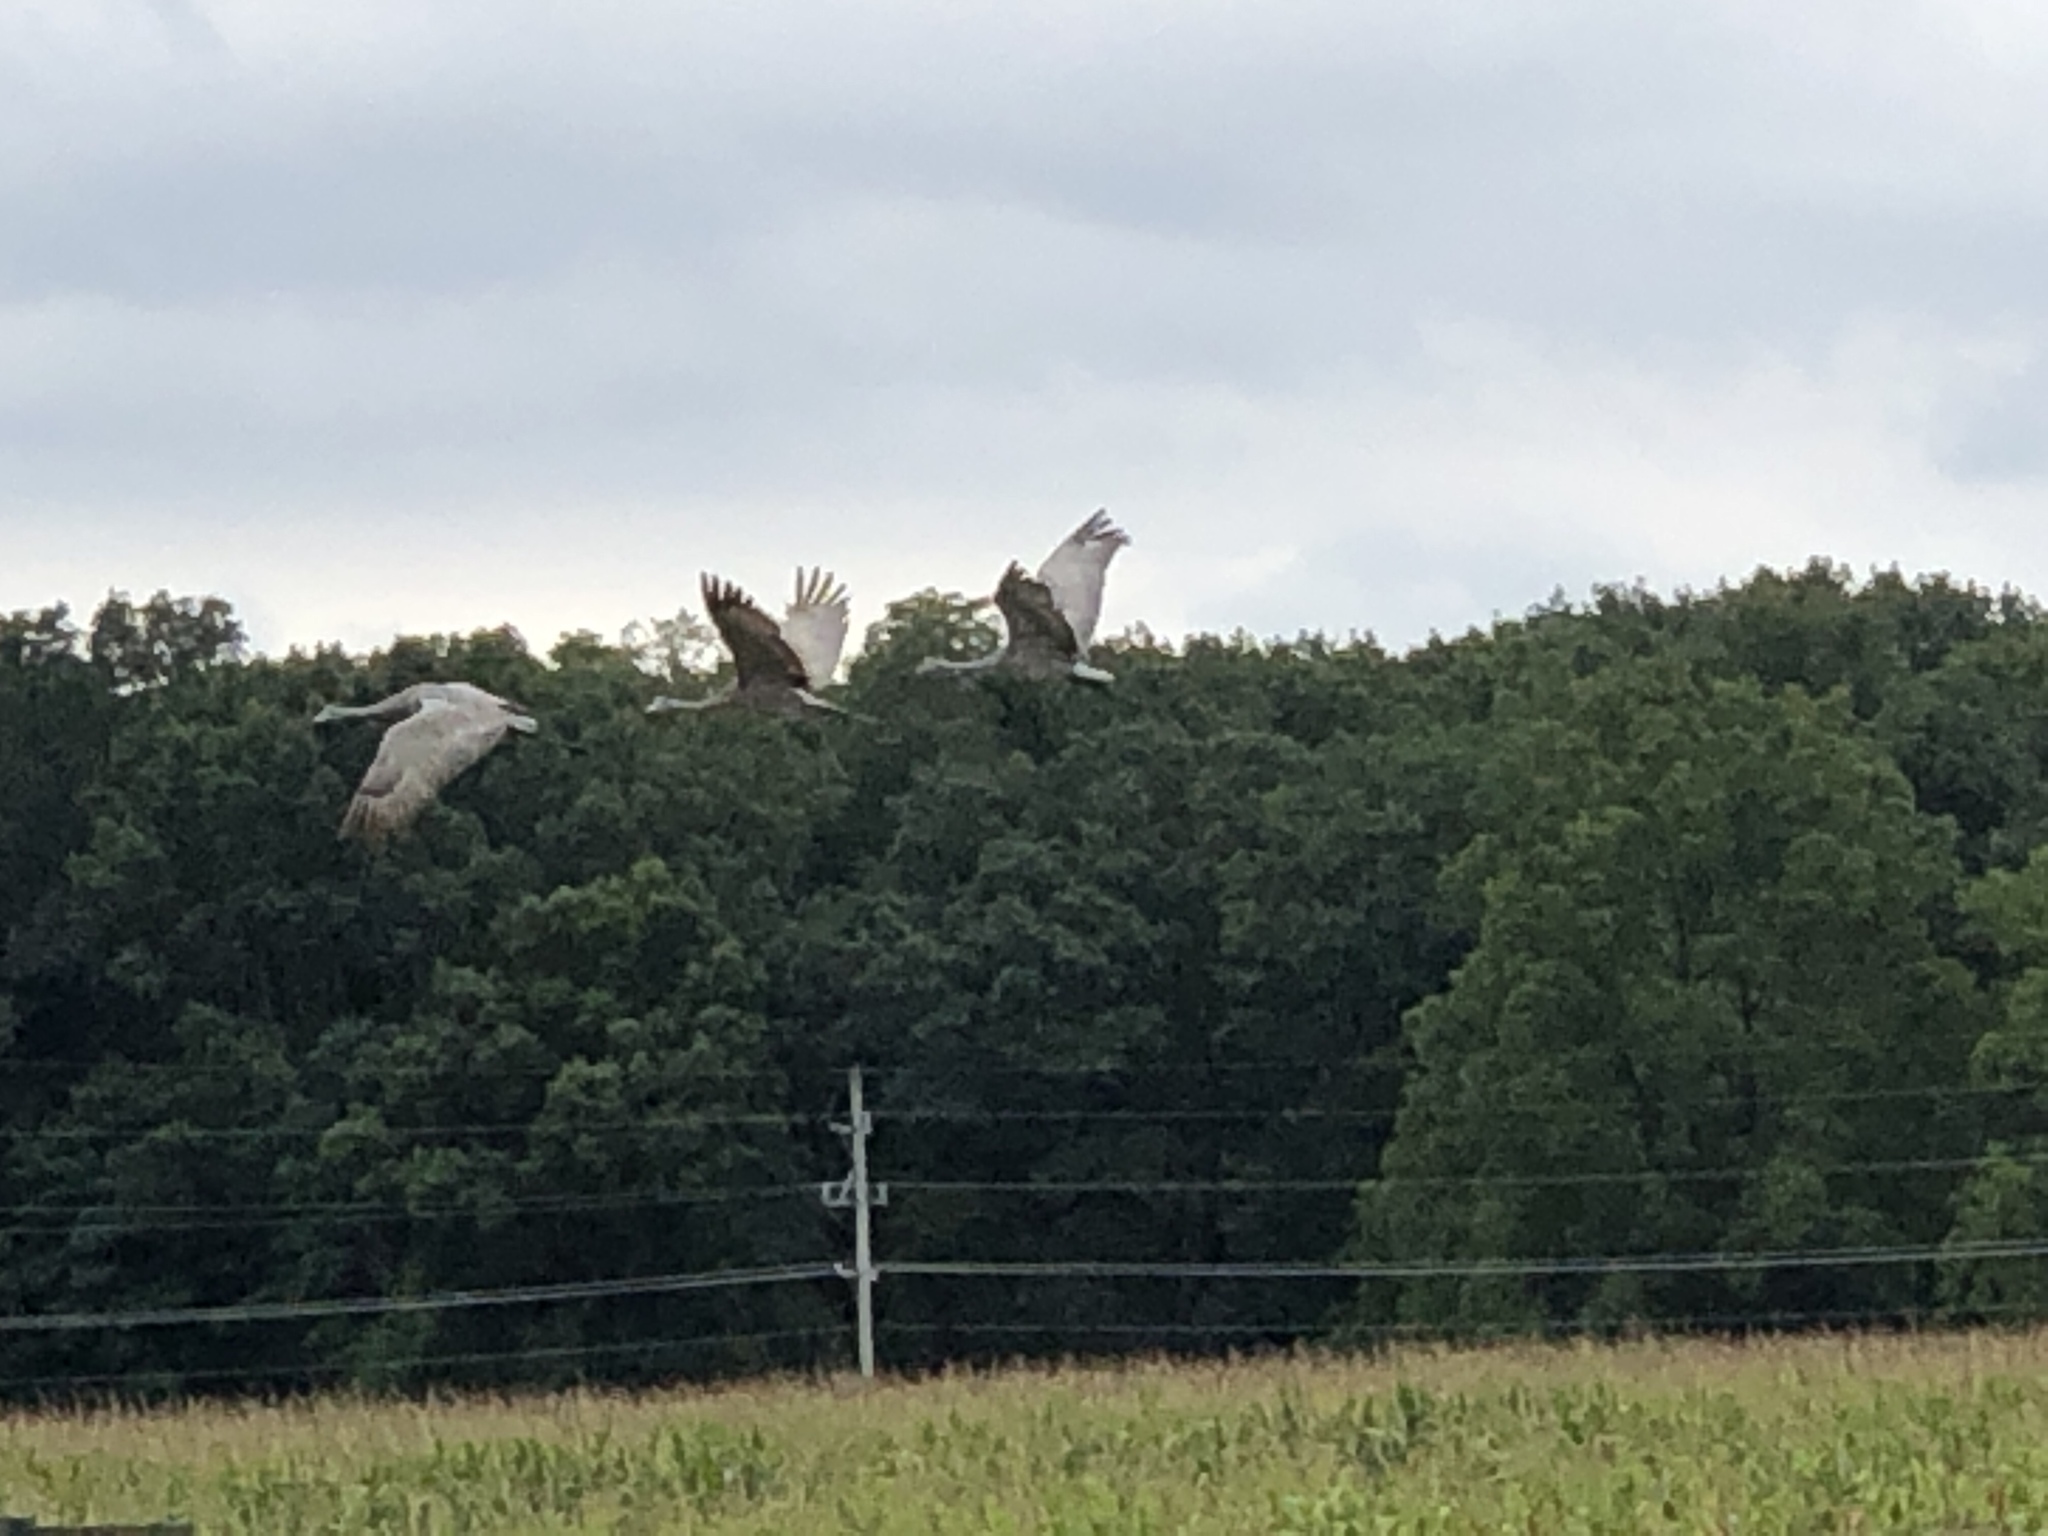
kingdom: Animalia
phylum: Chordata
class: Aves
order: Gruiformes
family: Gruidae
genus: Grus
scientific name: Grus canadensis
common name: Sandhill crane
